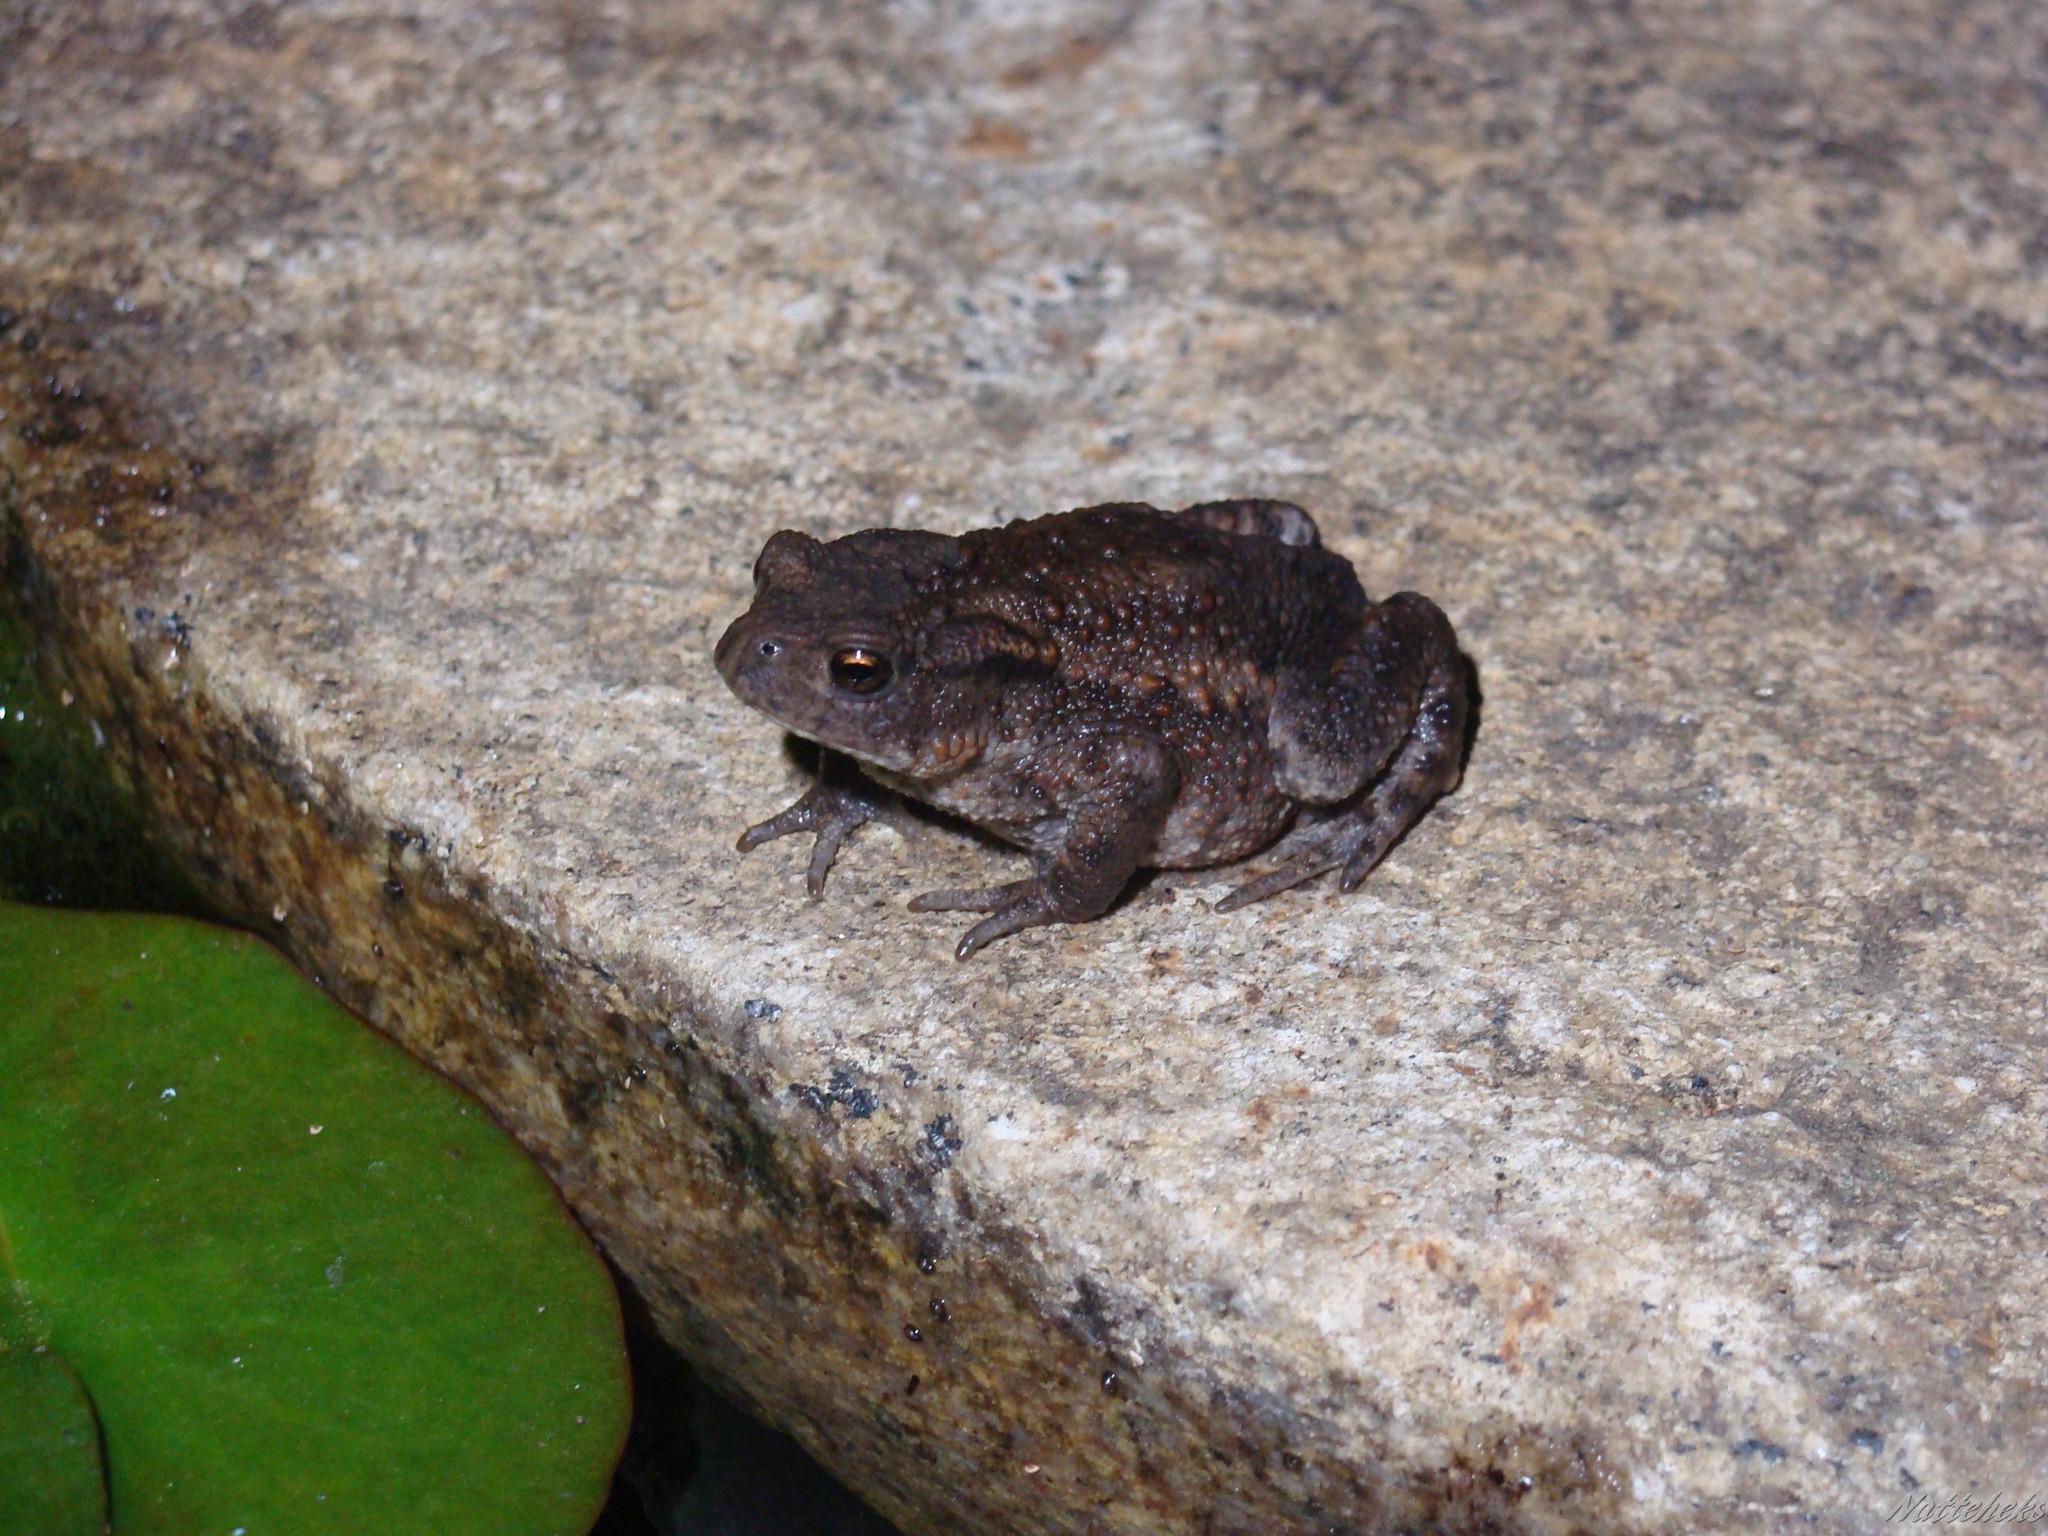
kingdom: Animalia
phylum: Chordata
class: Amphibia
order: Anura
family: Bufonidae
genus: Bufo
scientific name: Bufo bufo
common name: Common toad
